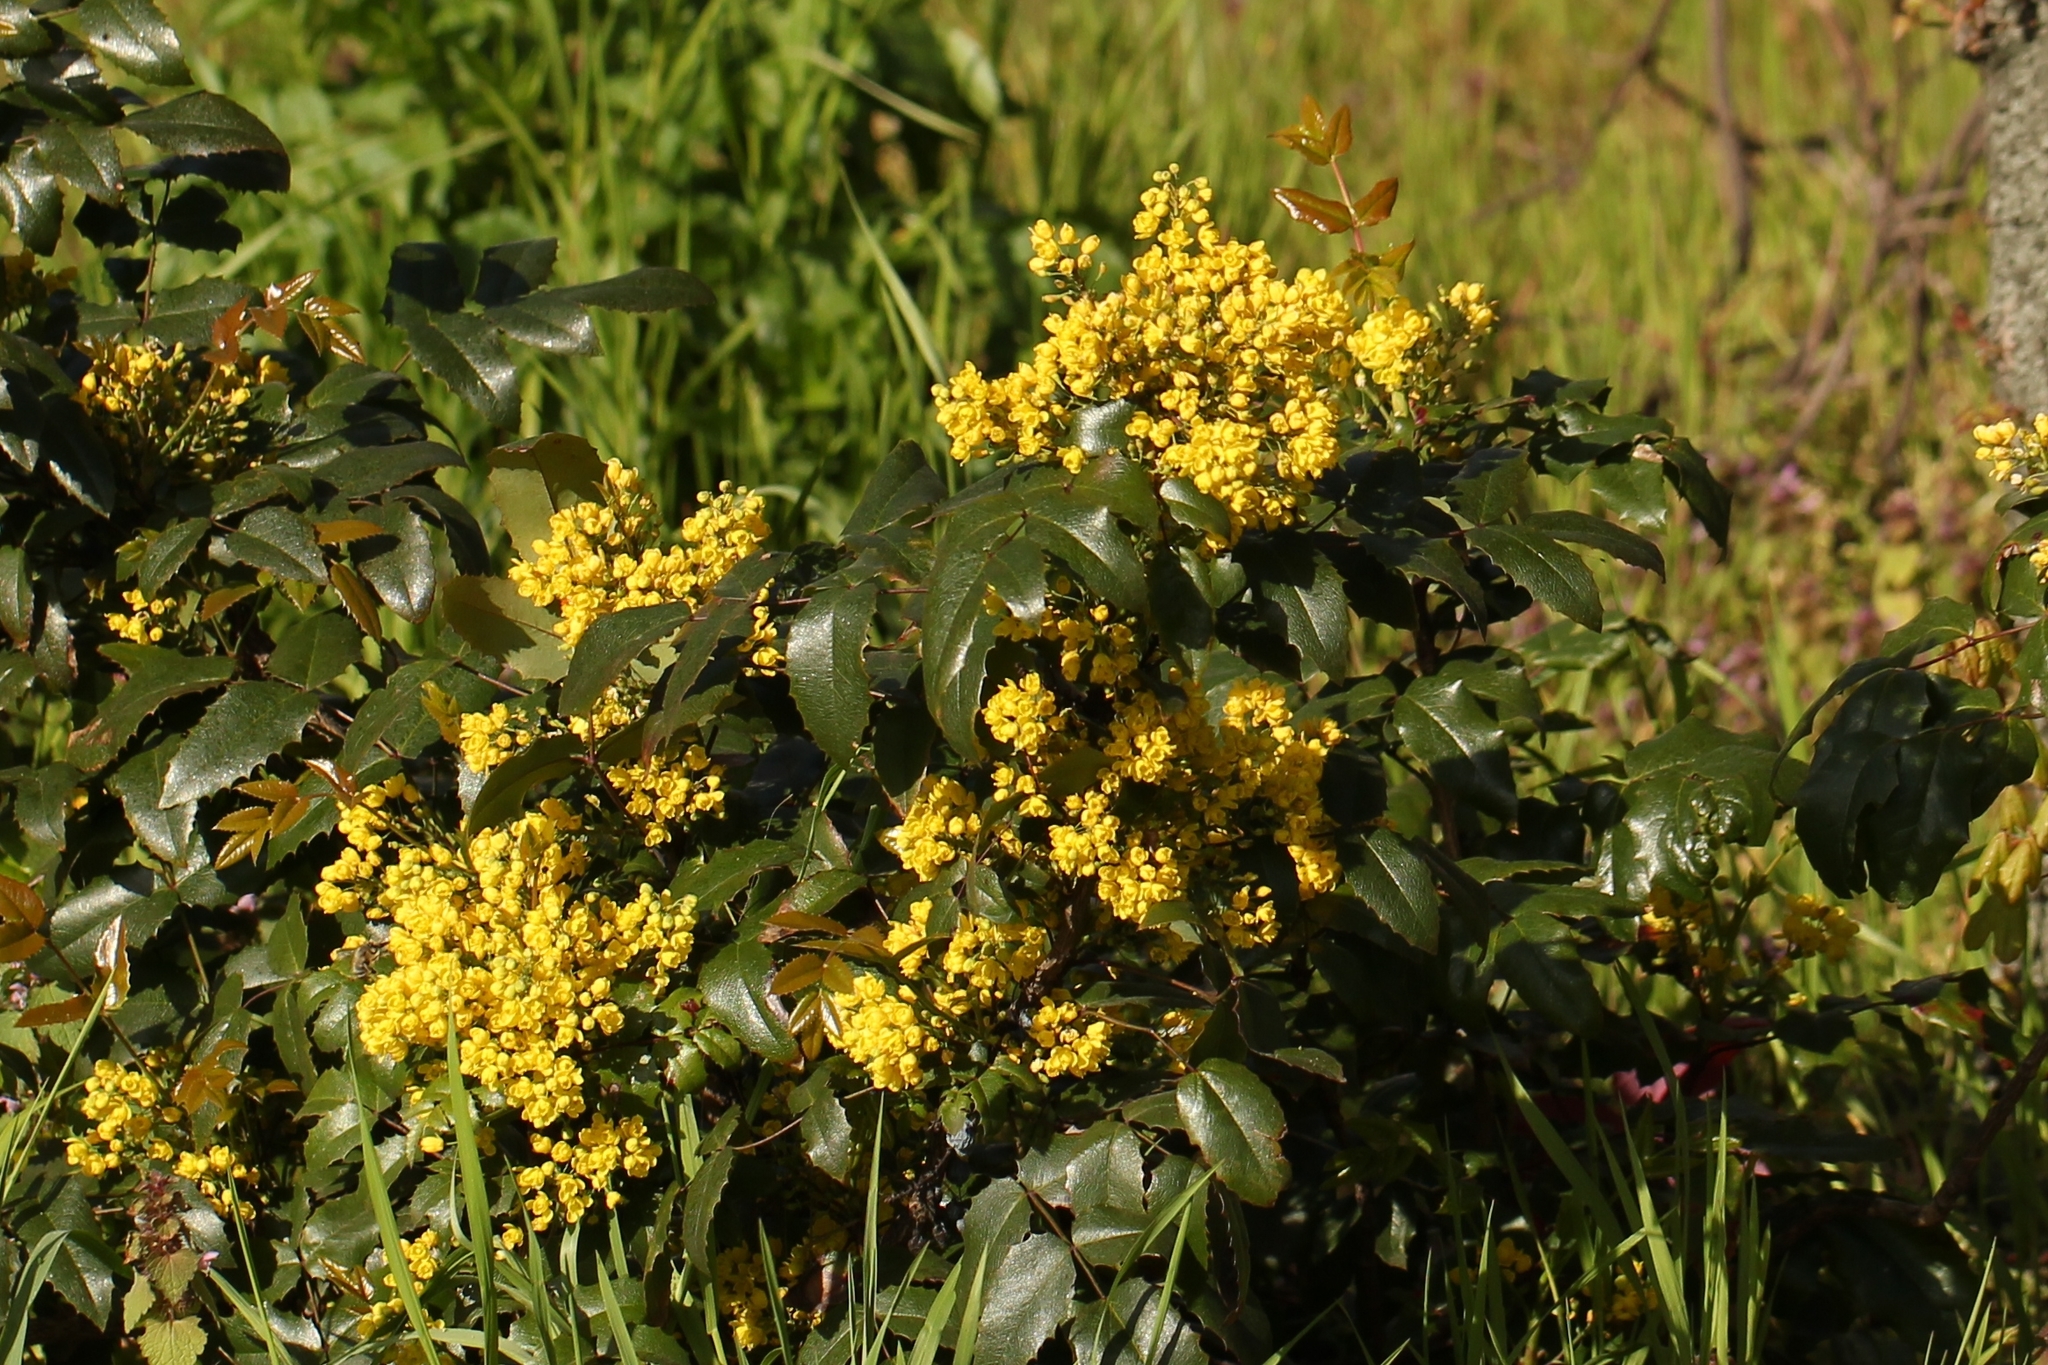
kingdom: Plantae
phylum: Tracheophyta
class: Magnoliopsida
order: Ranunculales
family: Berberidaceae
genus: Mahonia
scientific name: Mahonia aquifolium
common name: Oregon-grape
